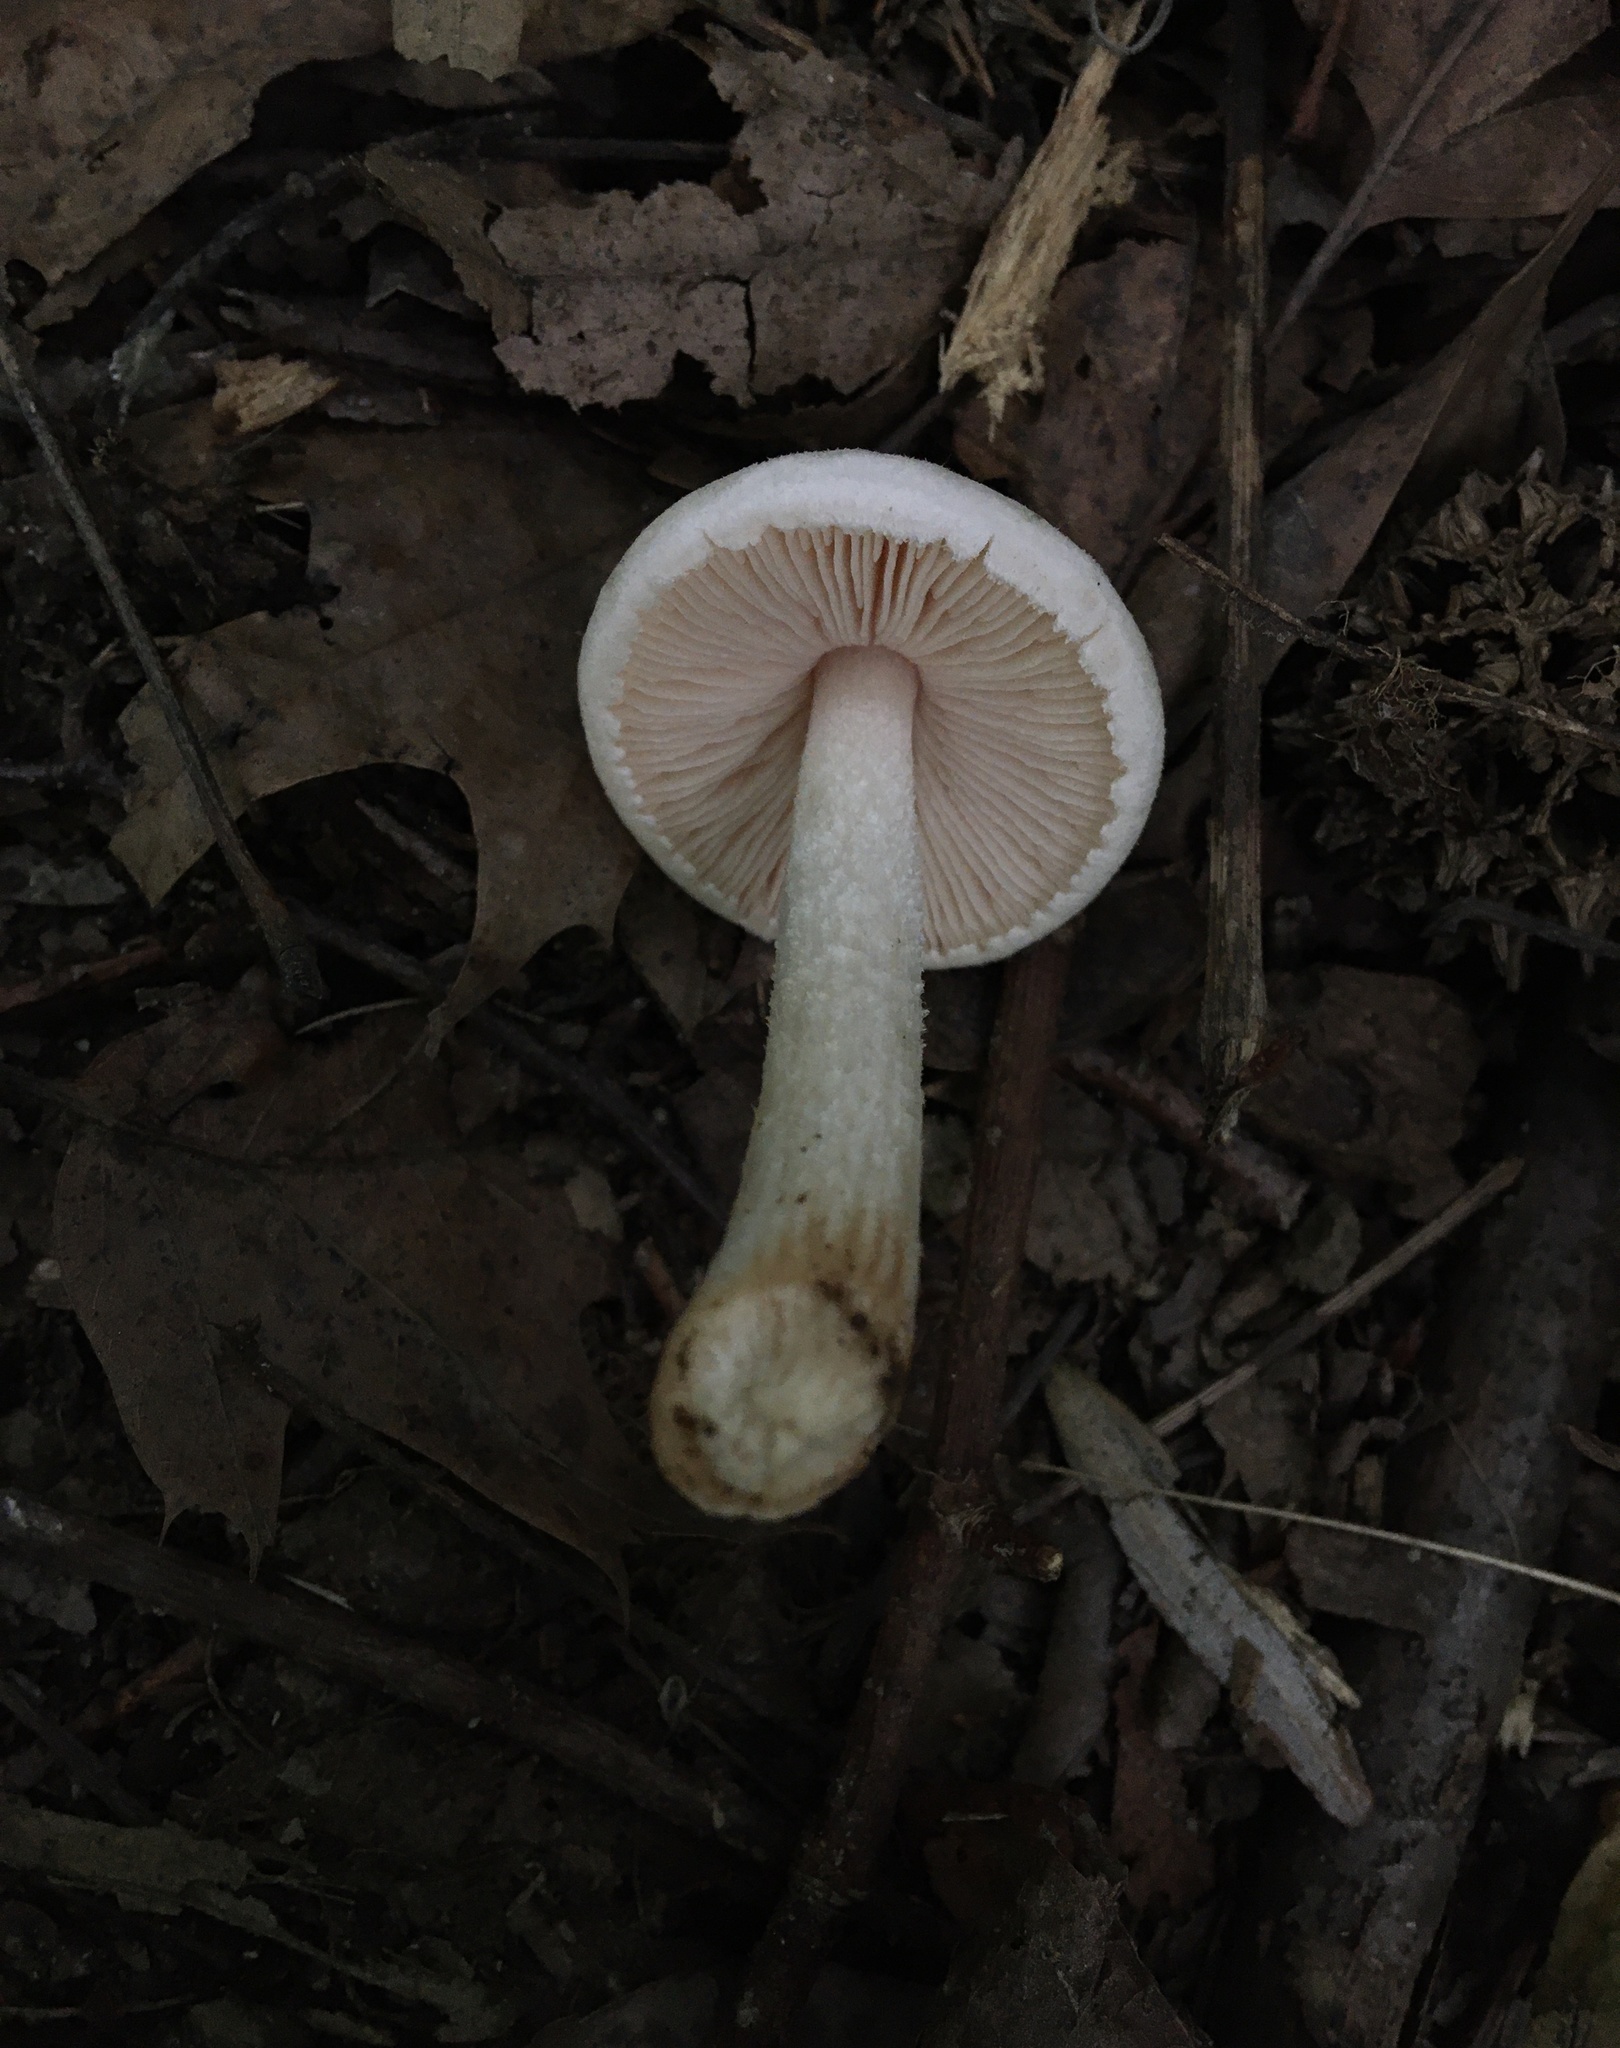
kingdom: Fungi
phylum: Basidiomycota
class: Agaricomycetes
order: Agaricales
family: Pluteaceae
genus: Pluteus
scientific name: Pluteus tomentosulus
